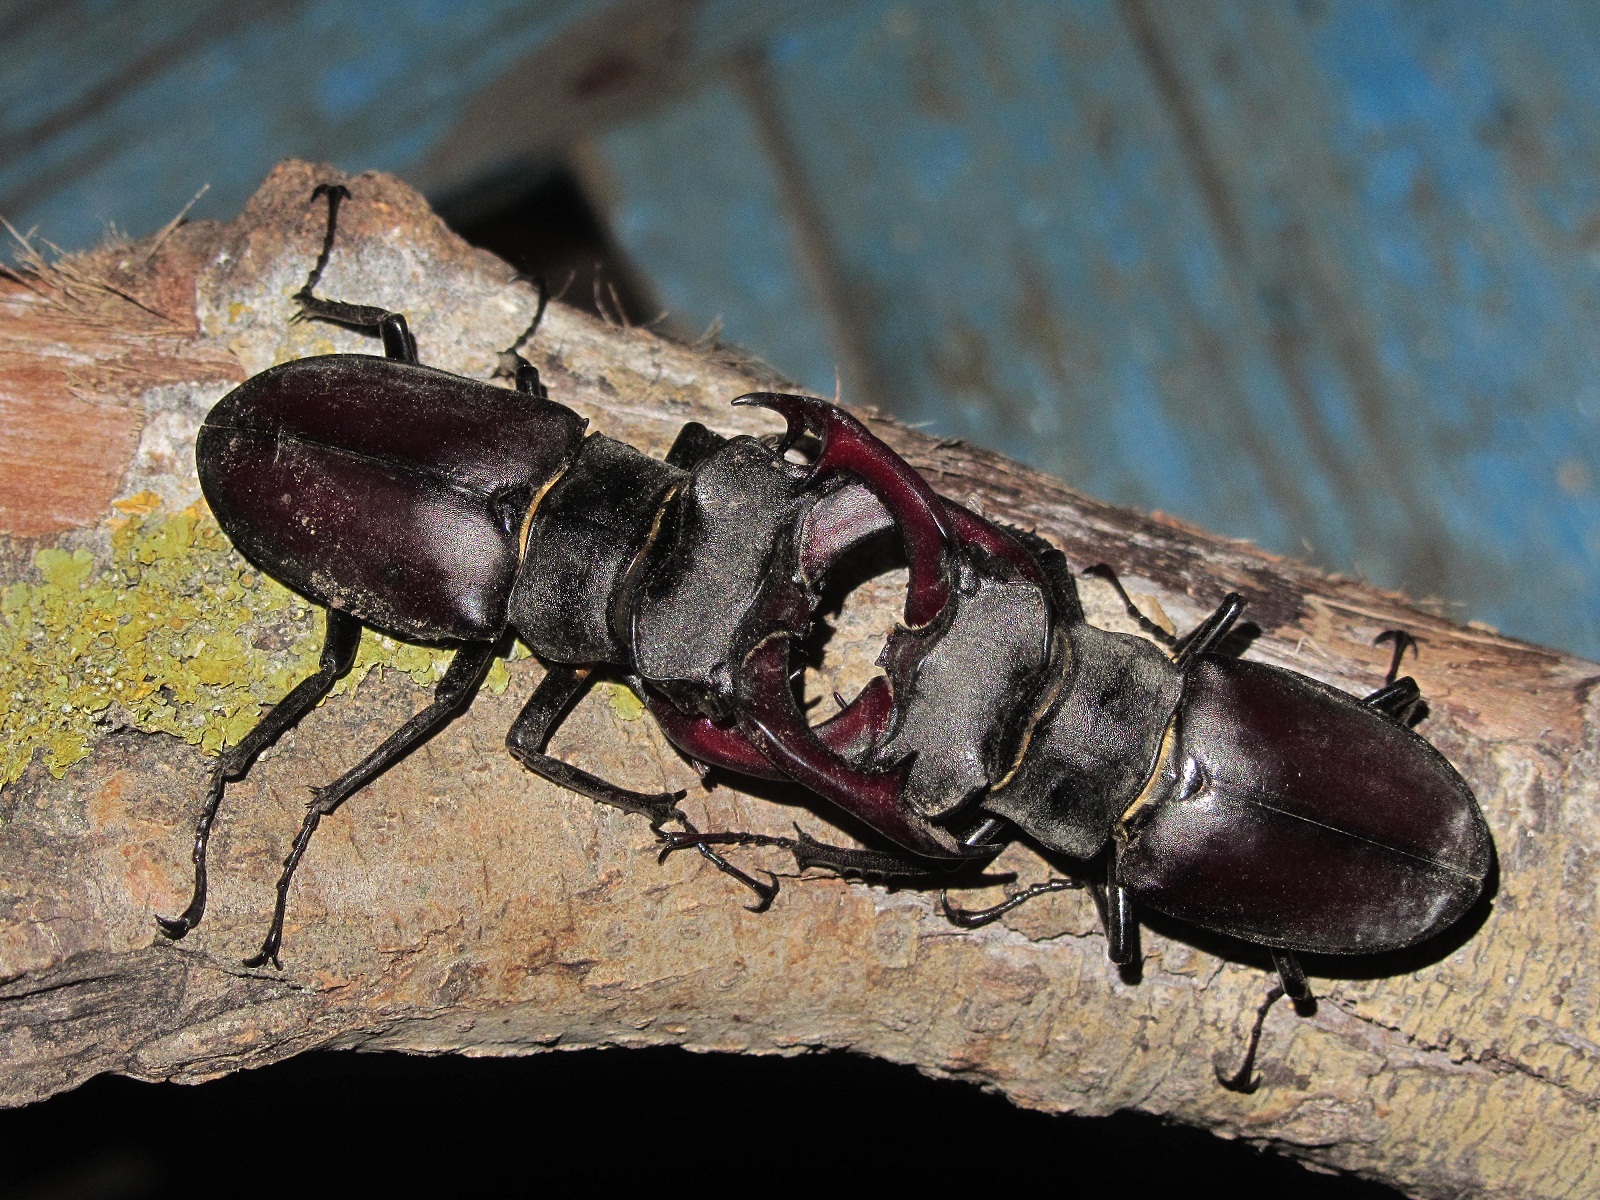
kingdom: Animalia
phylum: Arthropoda
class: Insecta
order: Coleoptera
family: Lucanidae
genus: Lucanus
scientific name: Lucanus cervus
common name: Stag beetle
